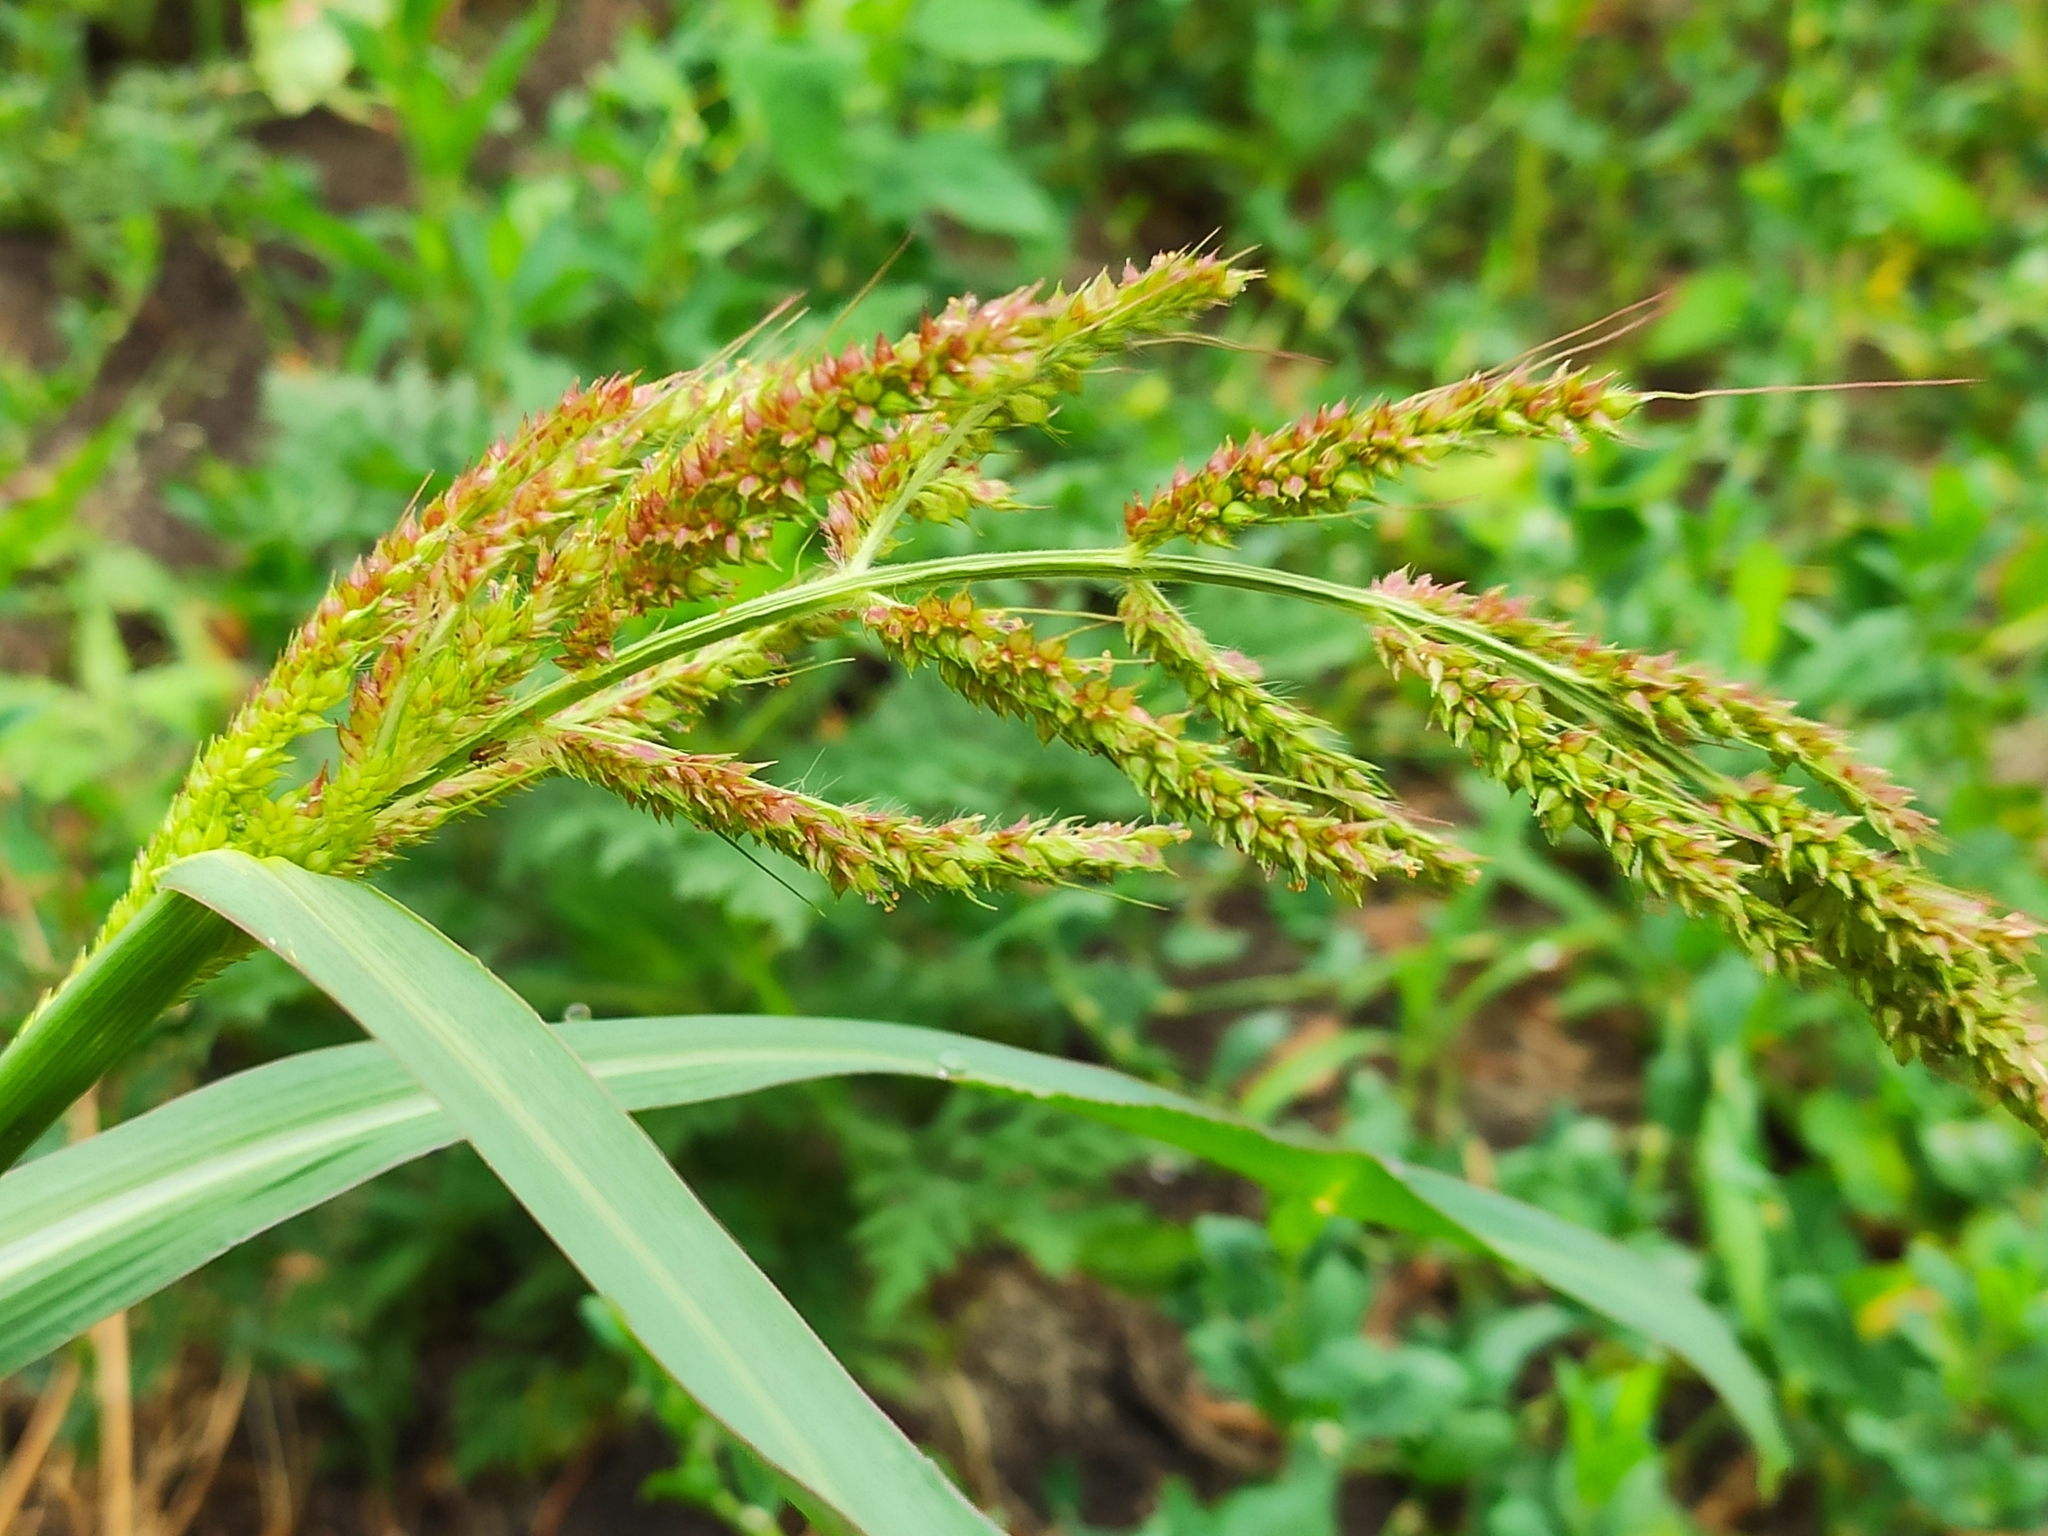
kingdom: Plantae
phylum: Tracheophyta
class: Liliopsida
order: Poales
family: Poaceae
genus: Echinochloa
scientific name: Echinochloa crus-galli
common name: Cockspur
